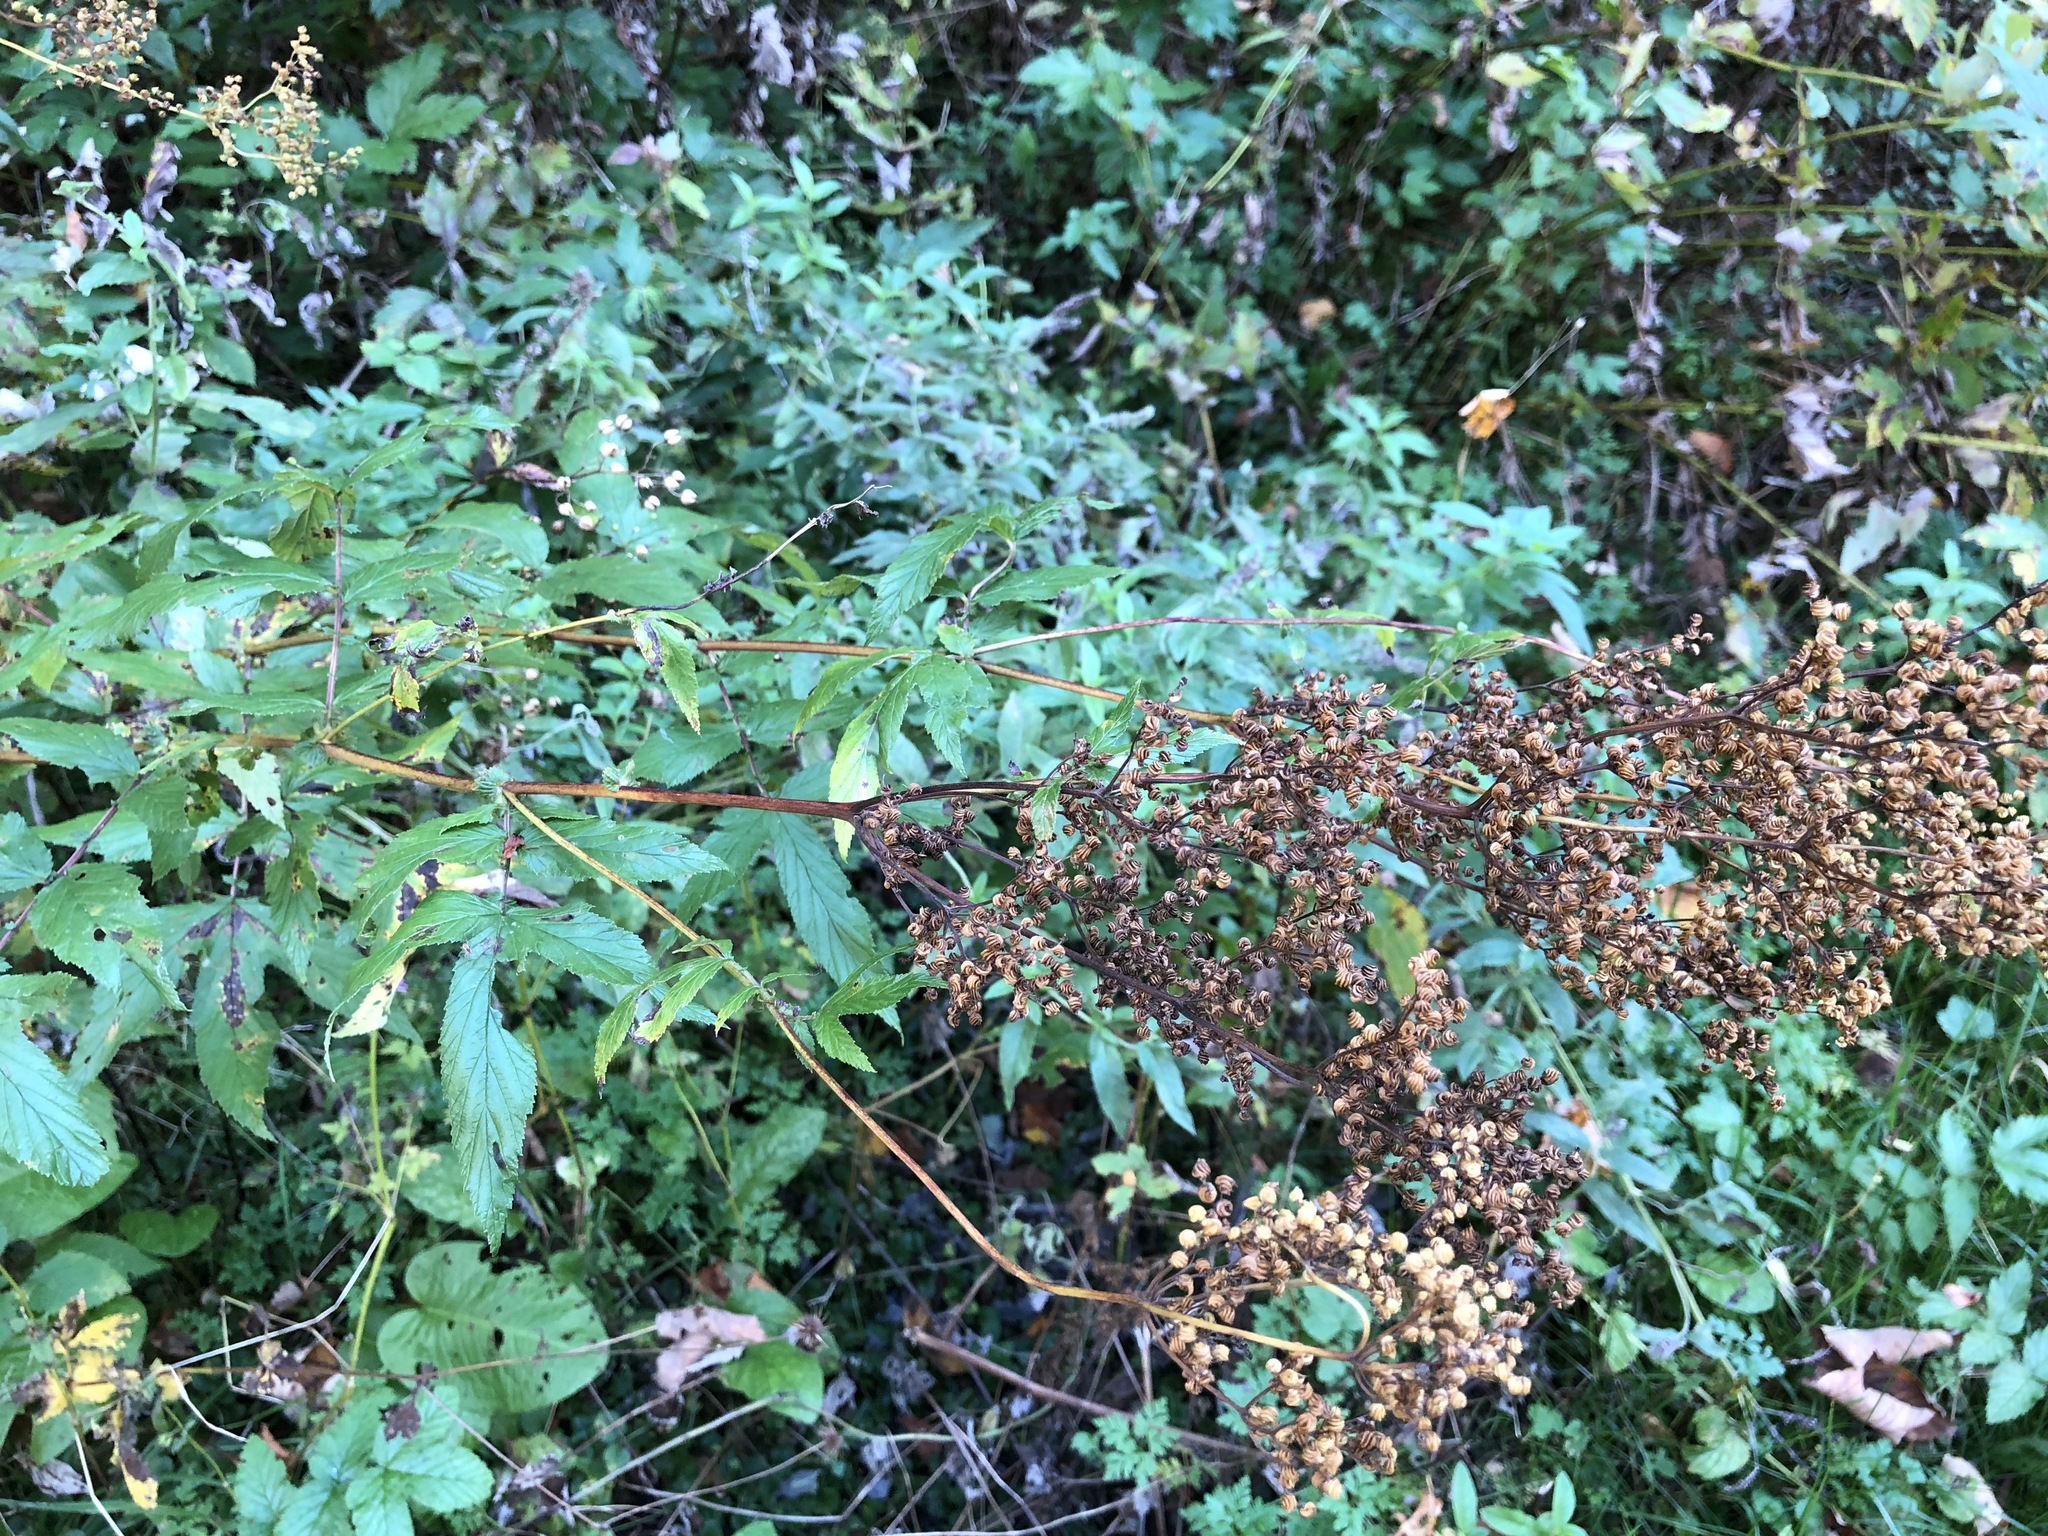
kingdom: Plantae
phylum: Tracheophyta
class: Magnoliopsida
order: Rosales
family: Rosaceae
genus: Filipendula
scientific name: Filipendula ulmaria
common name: Meadowsweet
